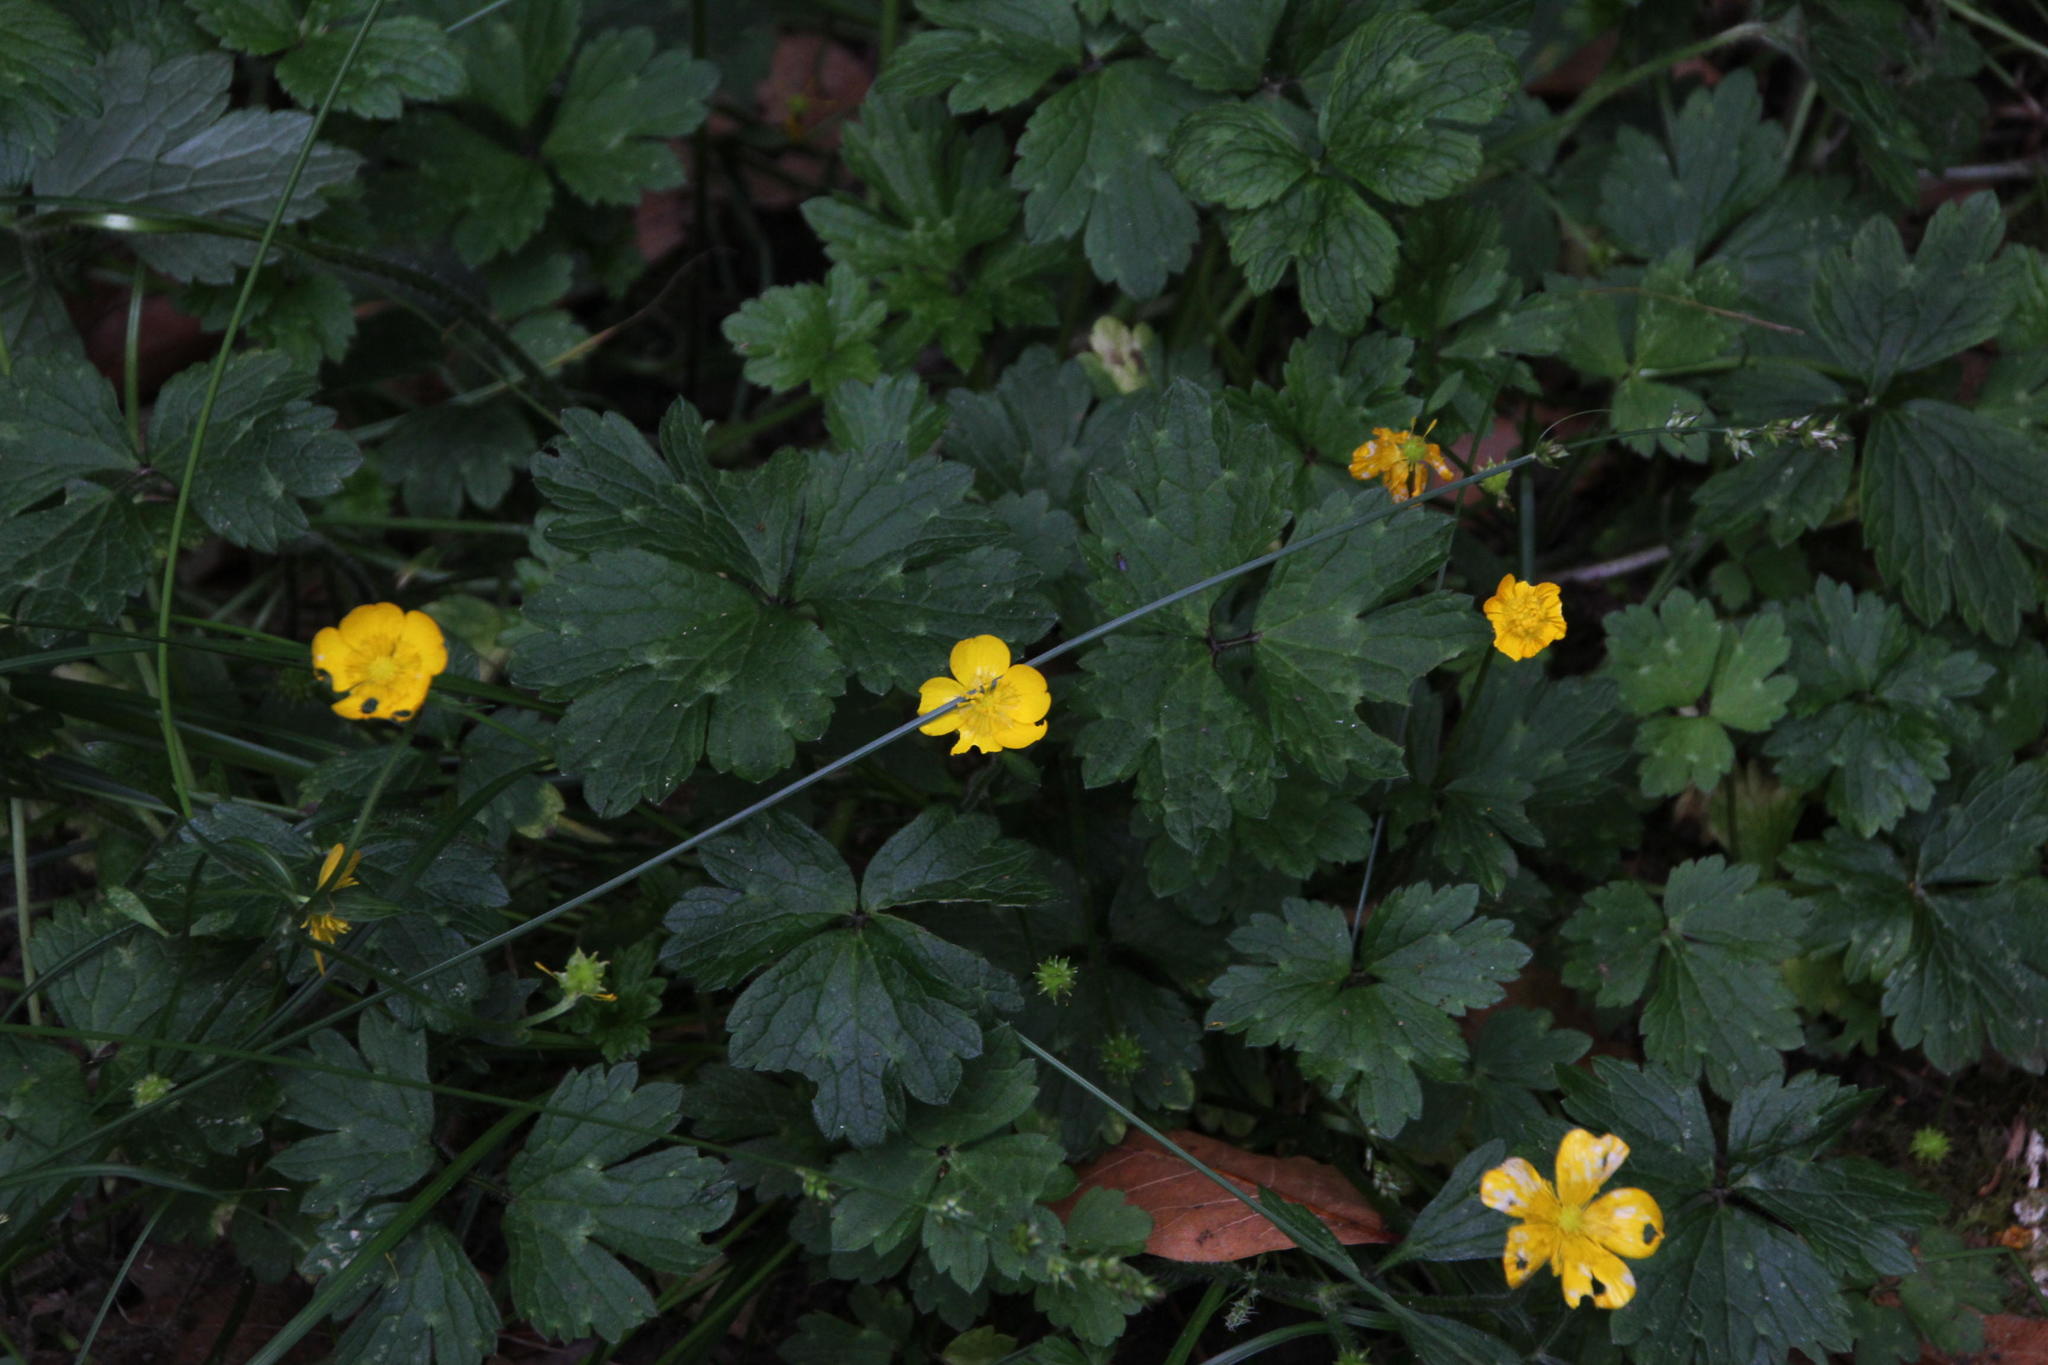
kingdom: Plantae
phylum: Tracheophyta
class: Magnoliopsida
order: Ranunculales
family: Ranunculaceae
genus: Ranunculus
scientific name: Ranunculus repens
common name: Creeping buttercup
